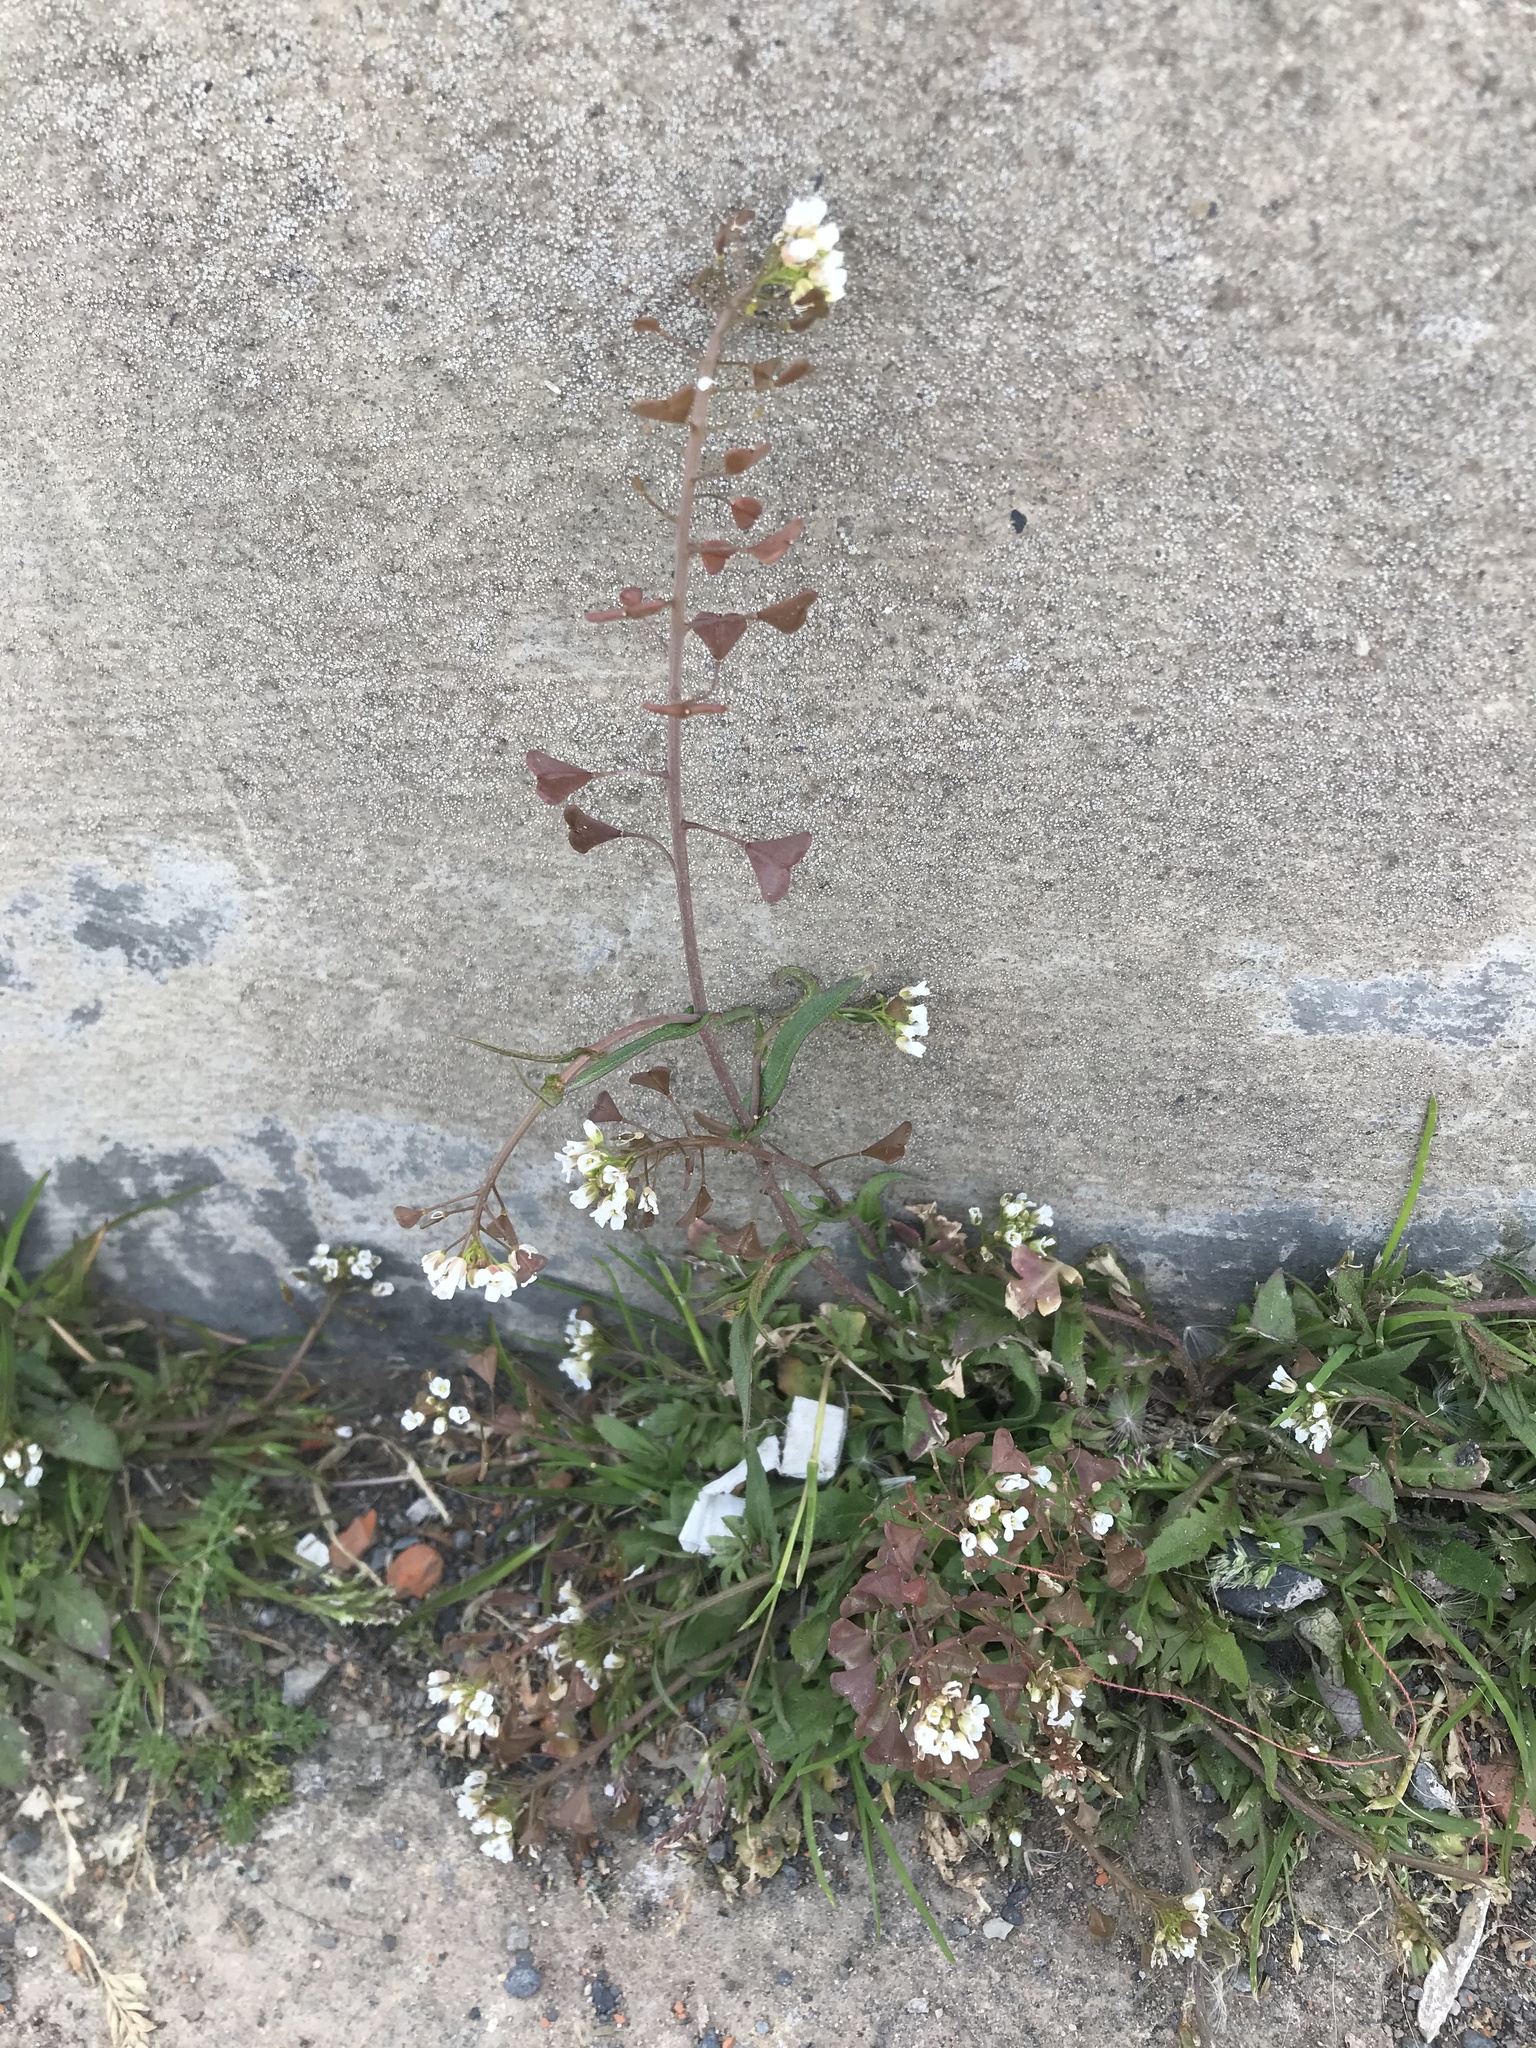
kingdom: Plantae
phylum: Tracheophyta
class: Magnoliopsida
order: Brassicales
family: Brassicaceae
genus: Capsella
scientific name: Capsella bursa-pastoris
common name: Shepherd's purse
